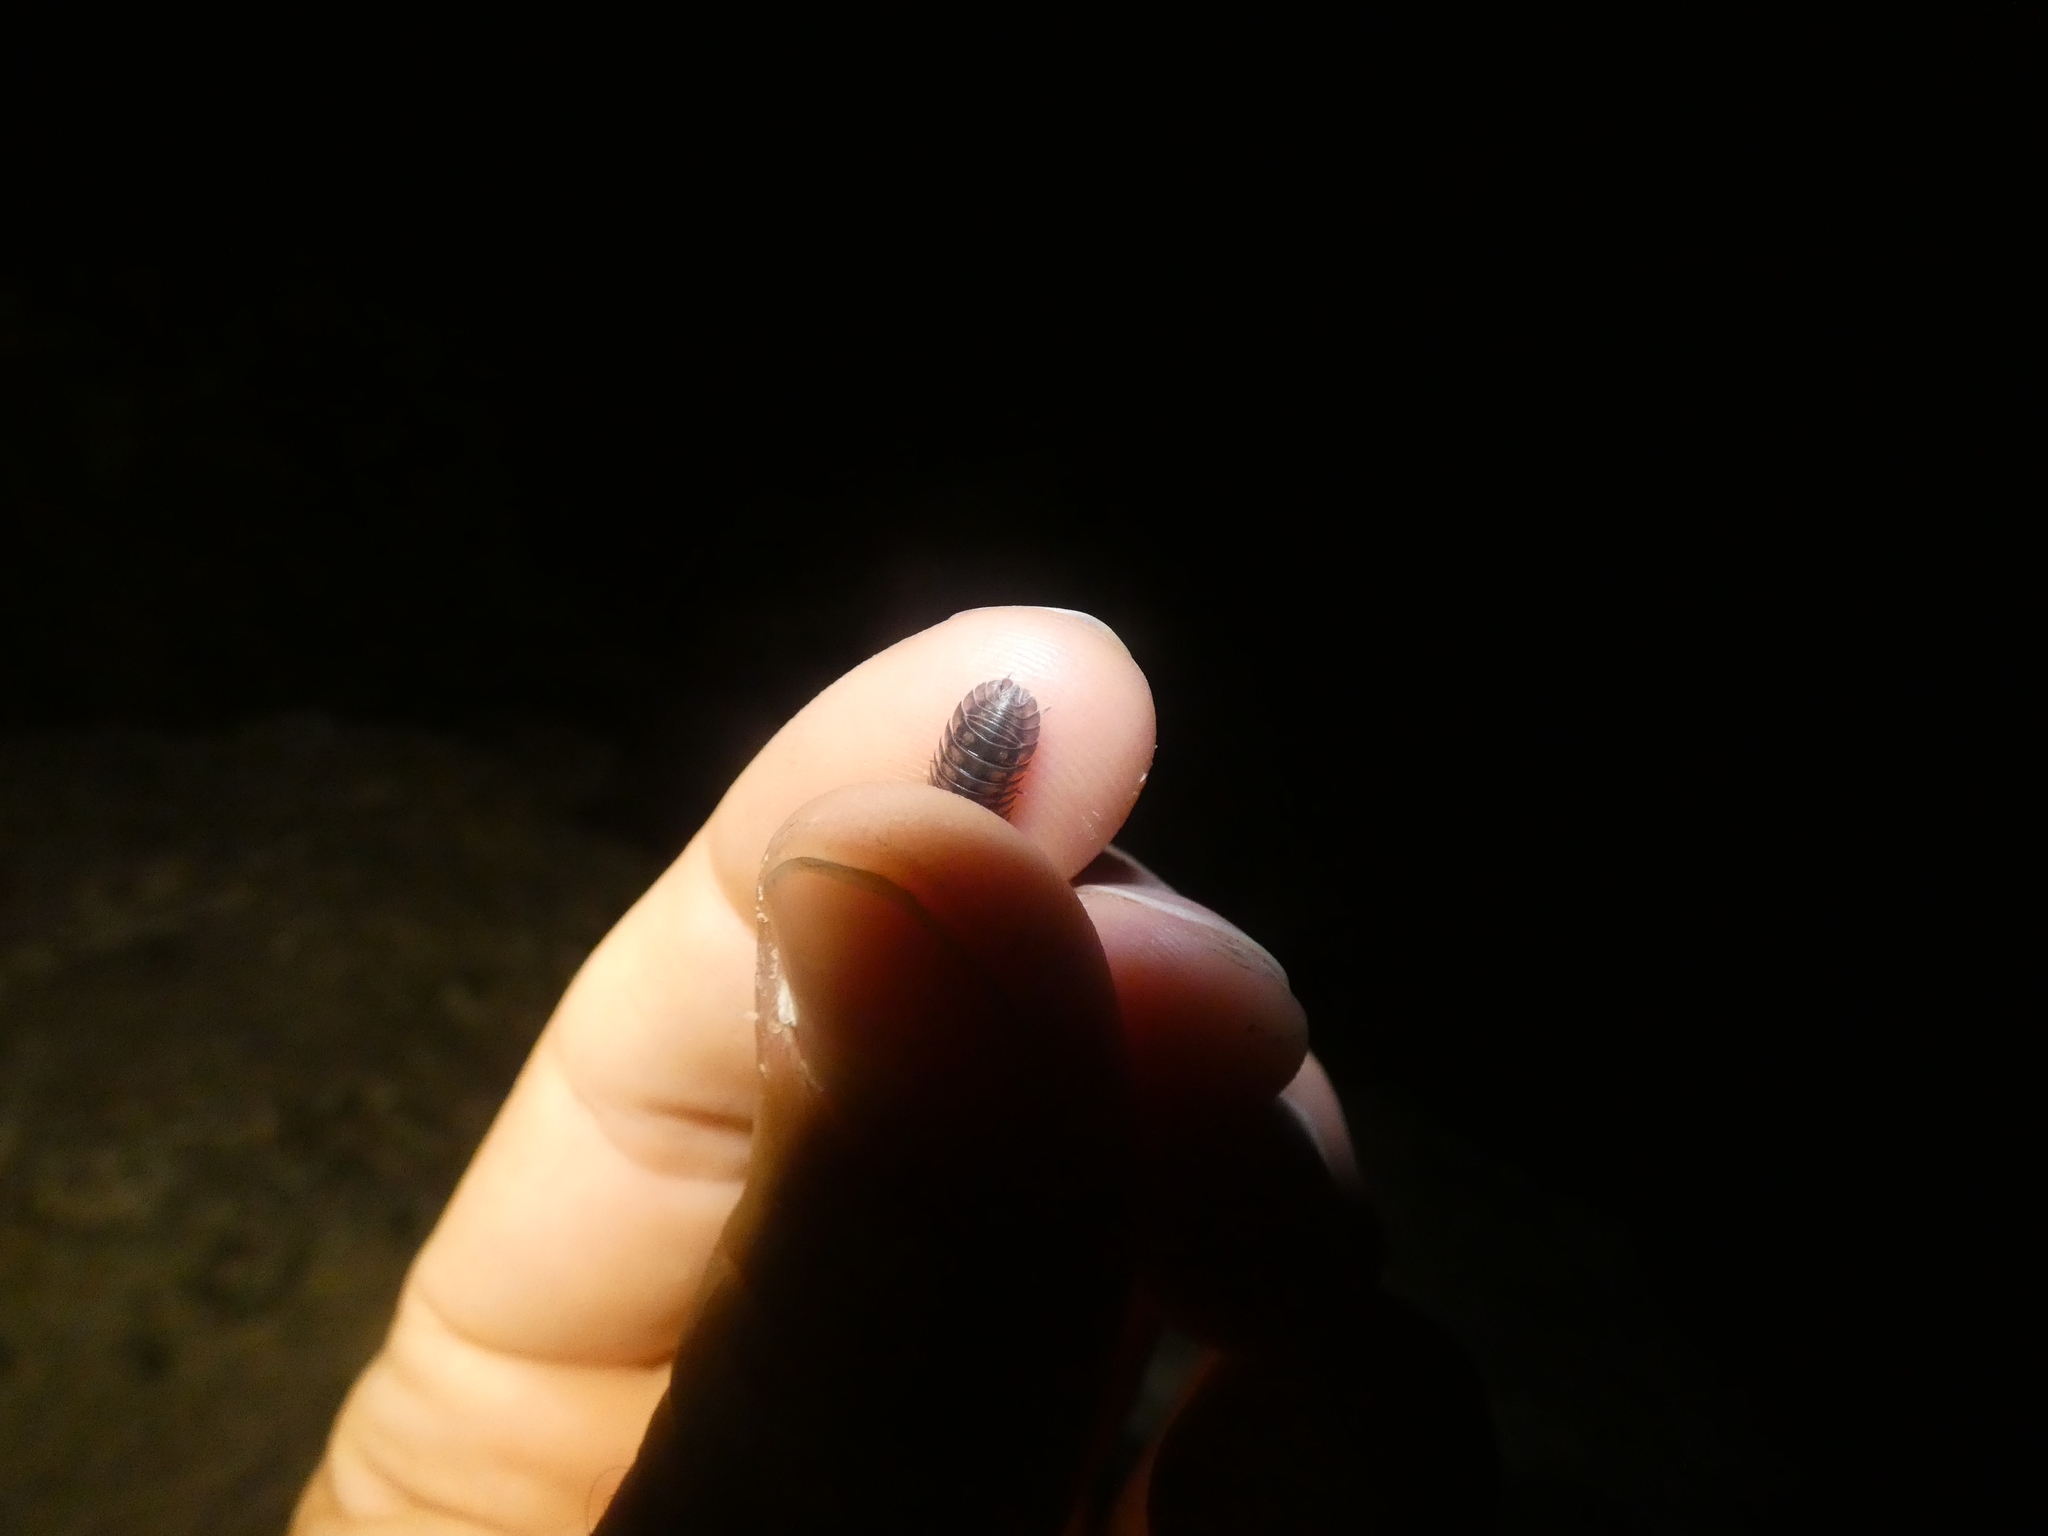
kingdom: Animalia
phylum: Arthropoda
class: Malacostraca
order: Isopoda
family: Armadillidiidae
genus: Armadillidium
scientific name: Armadillidium nasatum
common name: Isopod
